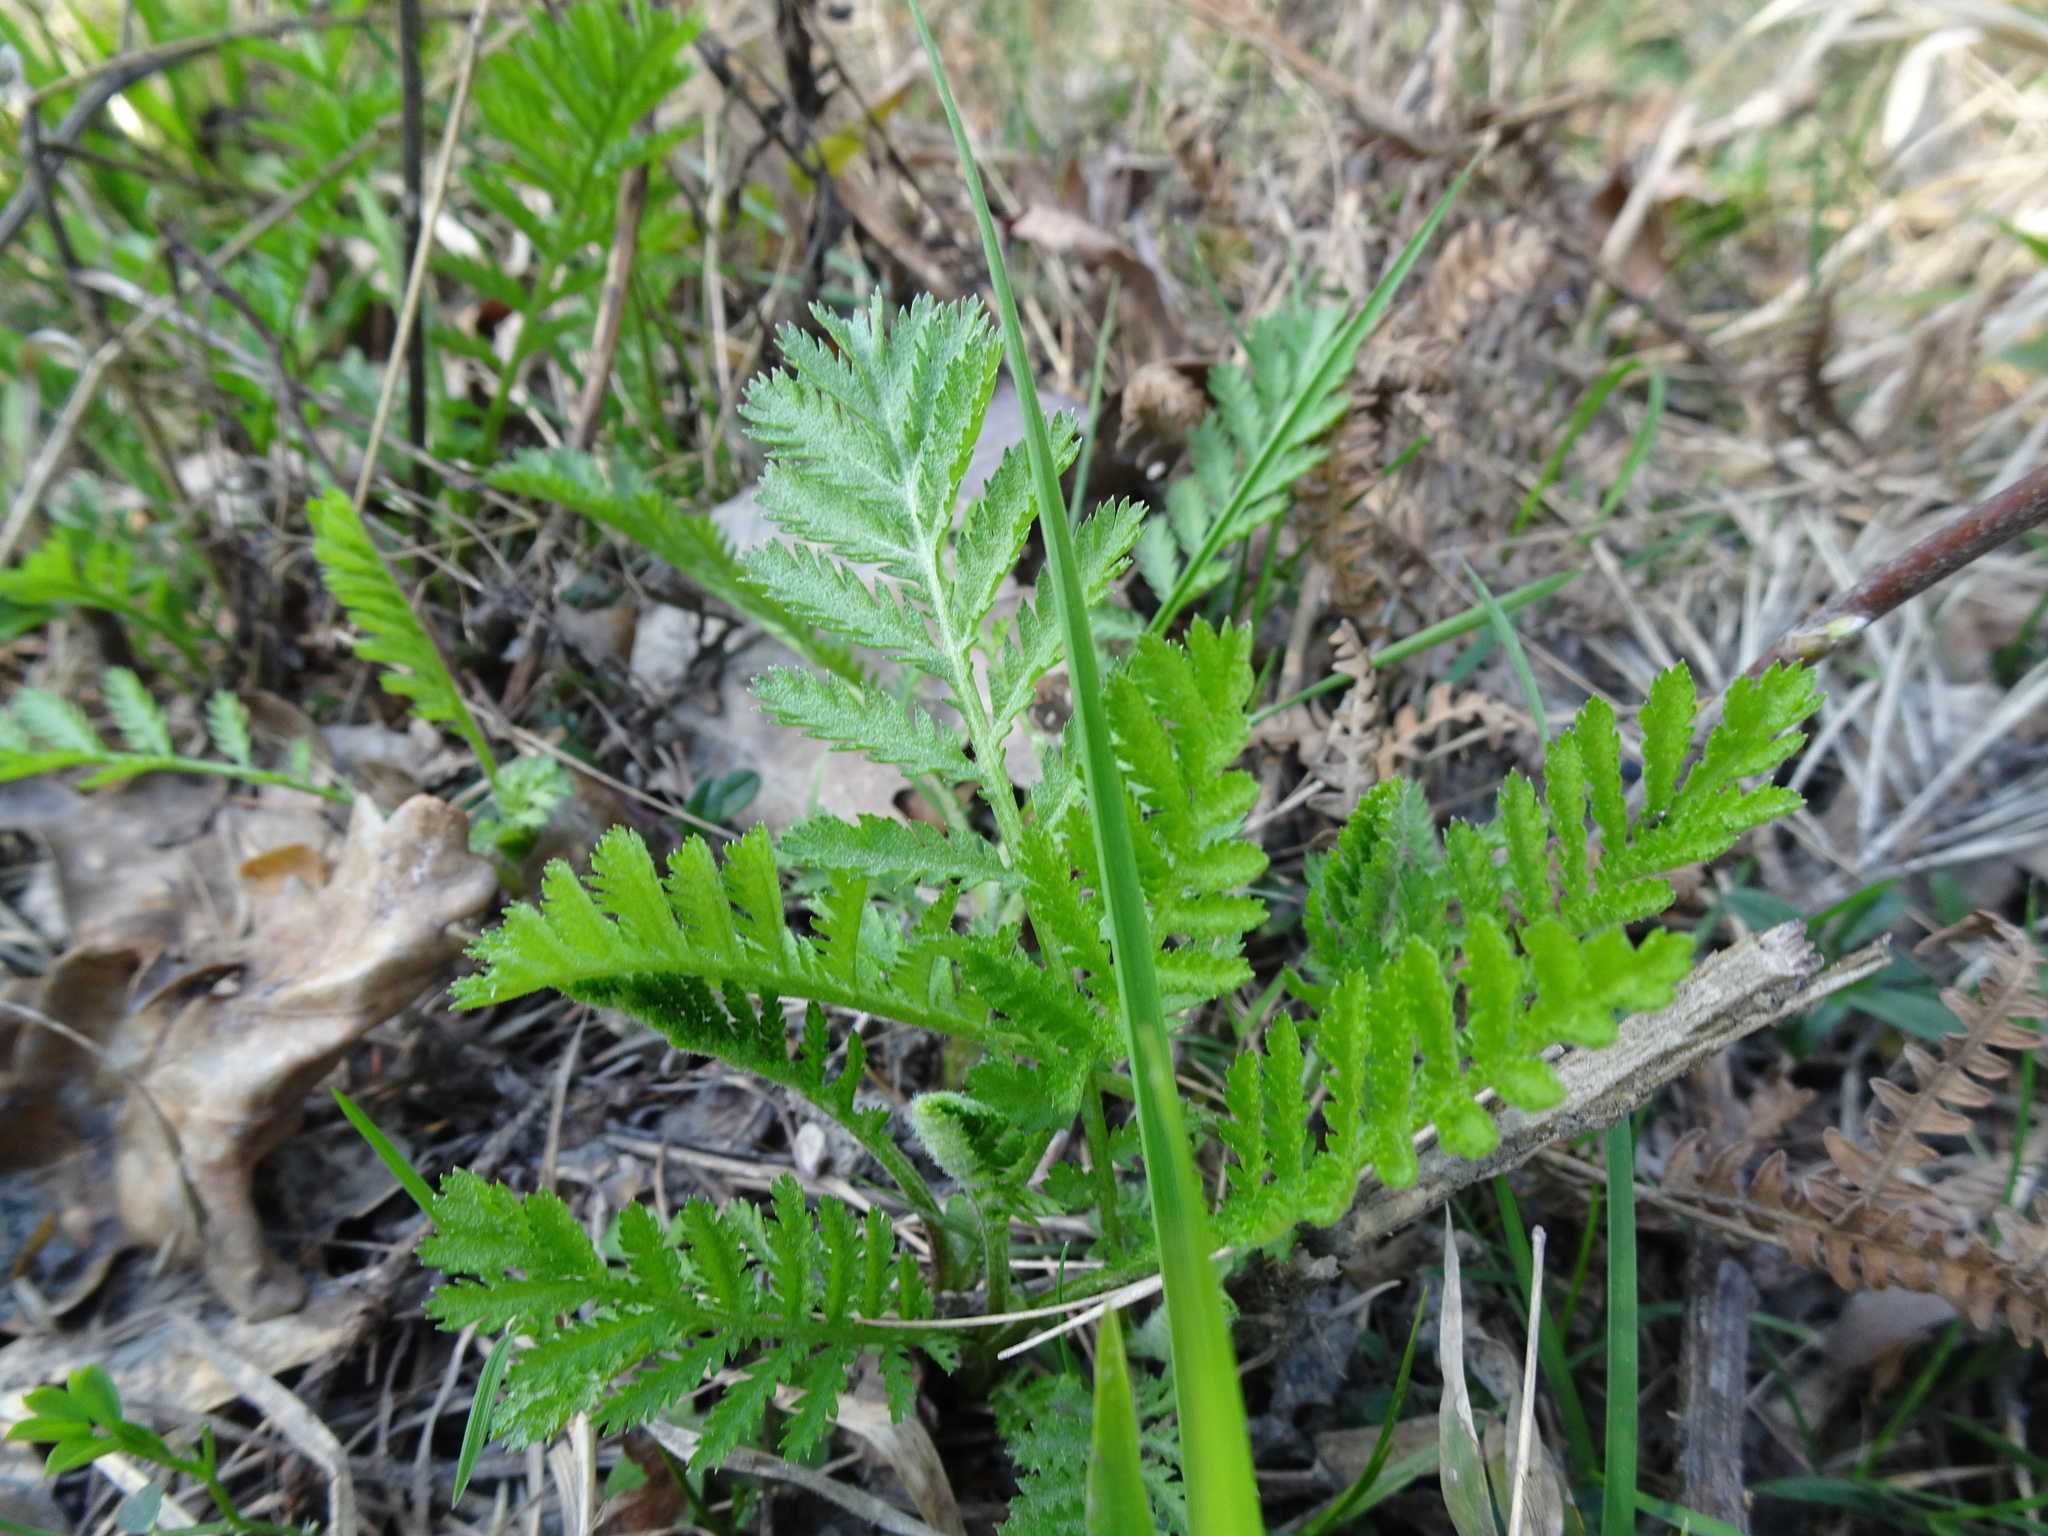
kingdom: Plantae
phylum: Tracheophyta
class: Magnoliopsida
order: Asterales
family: Asteraceae
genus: Tanacetum
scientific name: Tanacetum vulgare
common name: Common tansy
